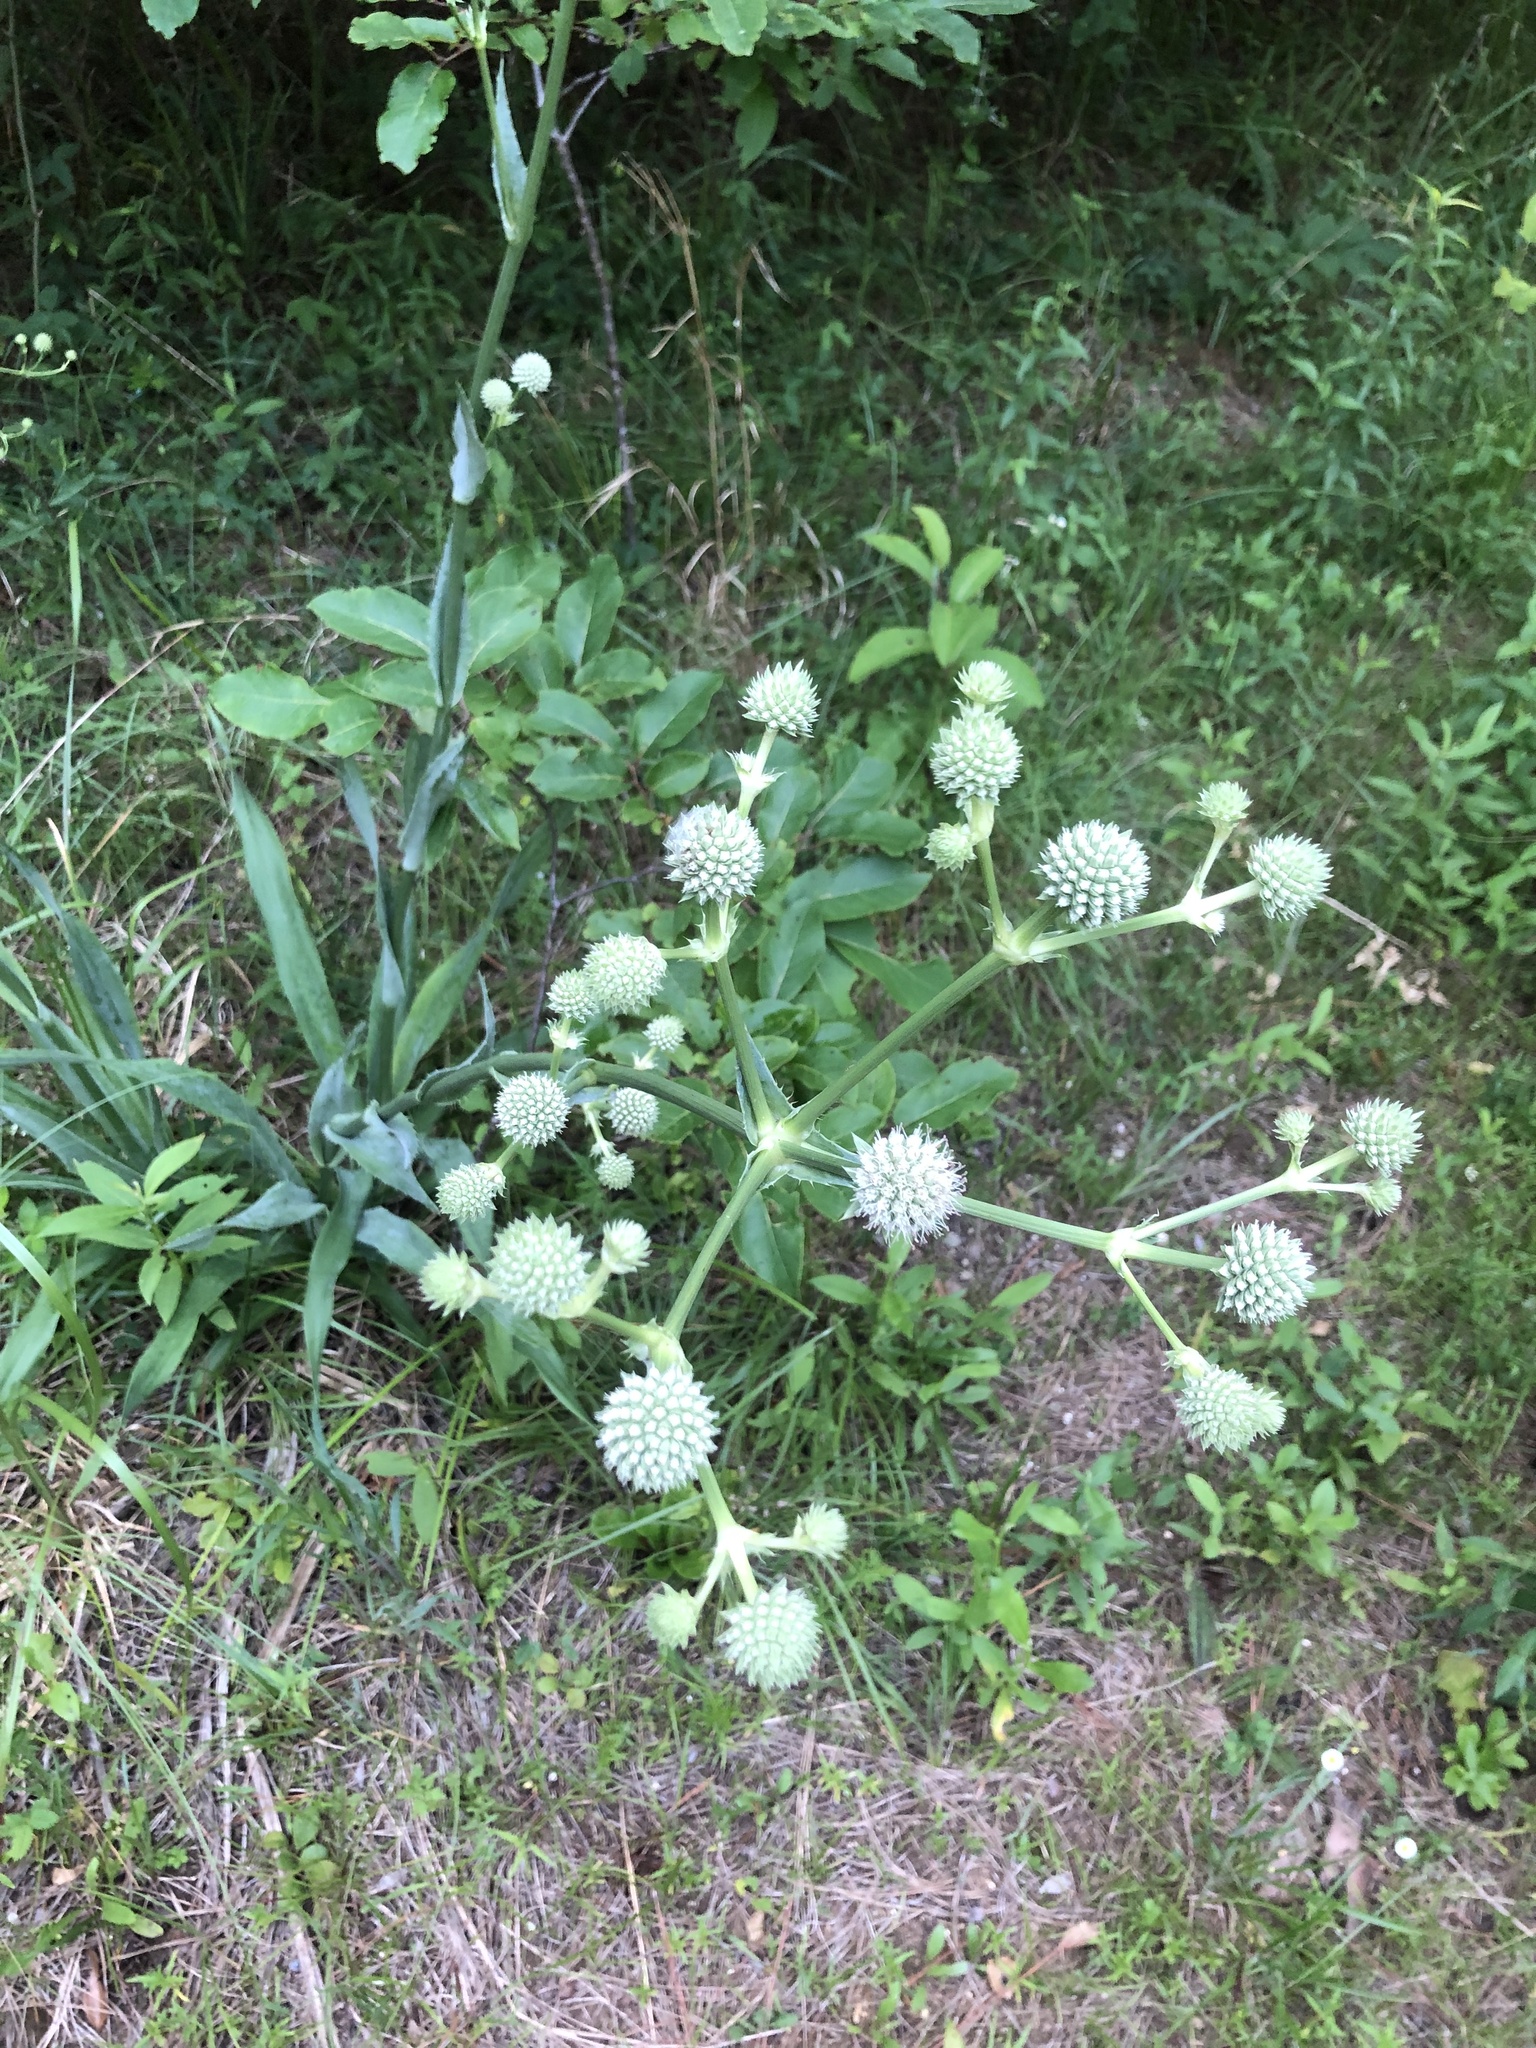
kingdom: Plantae
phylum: Tracheophyta
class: Magnoliopsida
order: Apiales
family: Apiaceae
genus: Eryngium
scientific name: Eryngium yuccifolium
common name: Button eryngo
